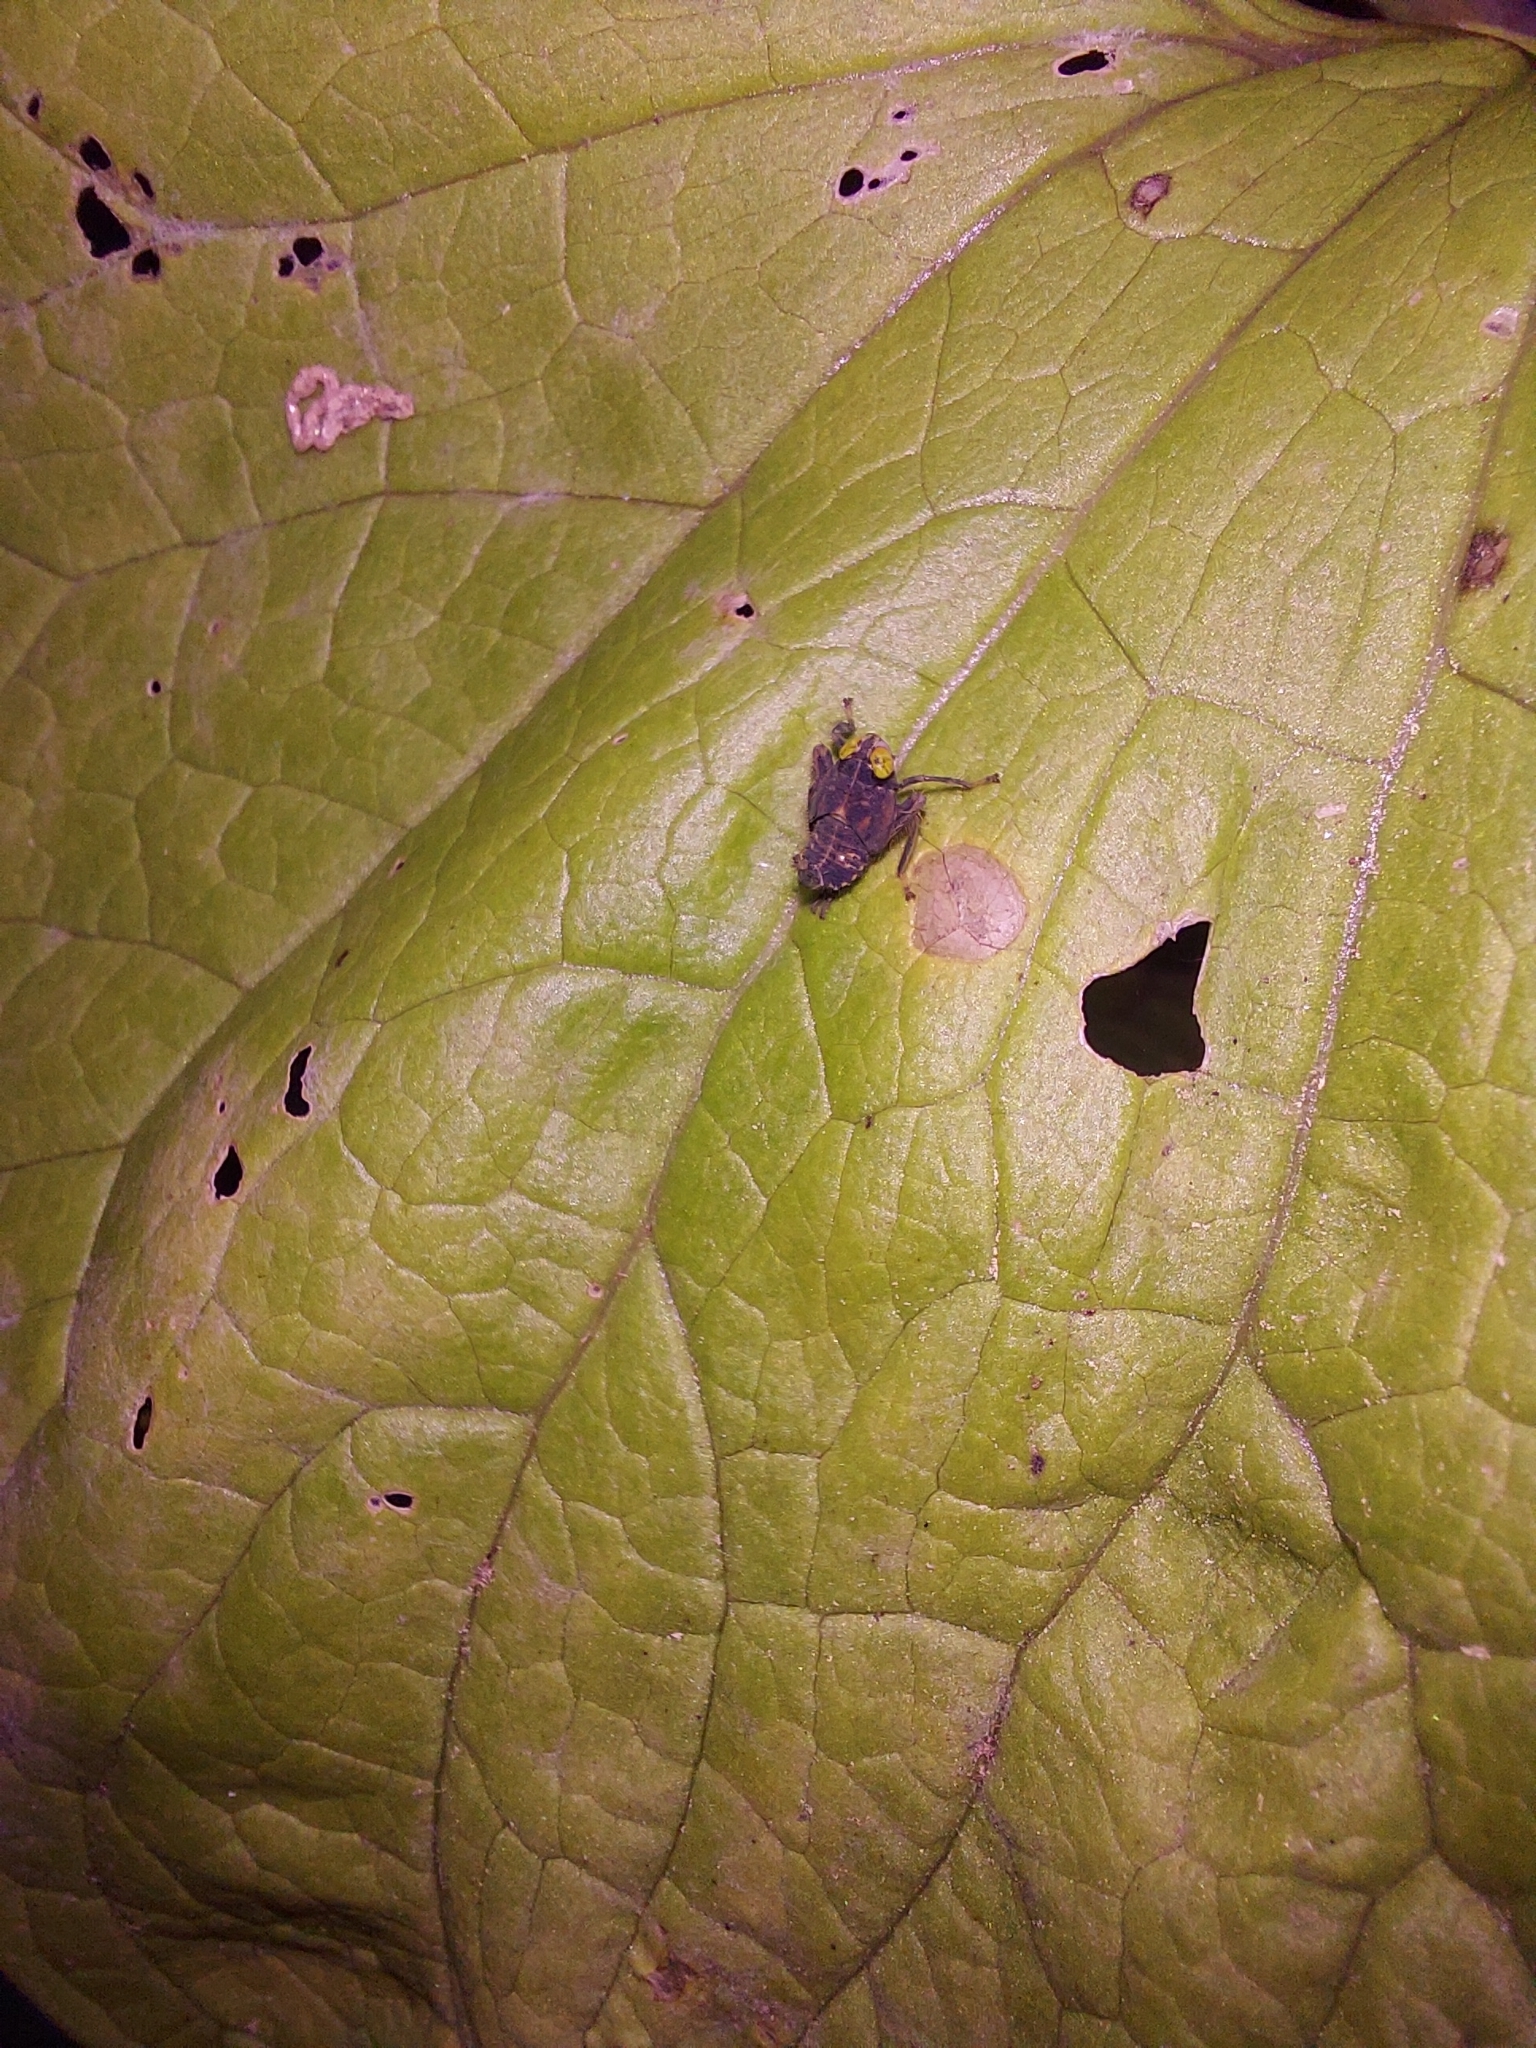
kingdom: Animalia
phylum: Arthropoda
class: Insecta
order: Hemiptera
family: Cicadellidae
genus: Jikradia
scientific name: Jikradia olitoria
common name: Coppery leafhopper
